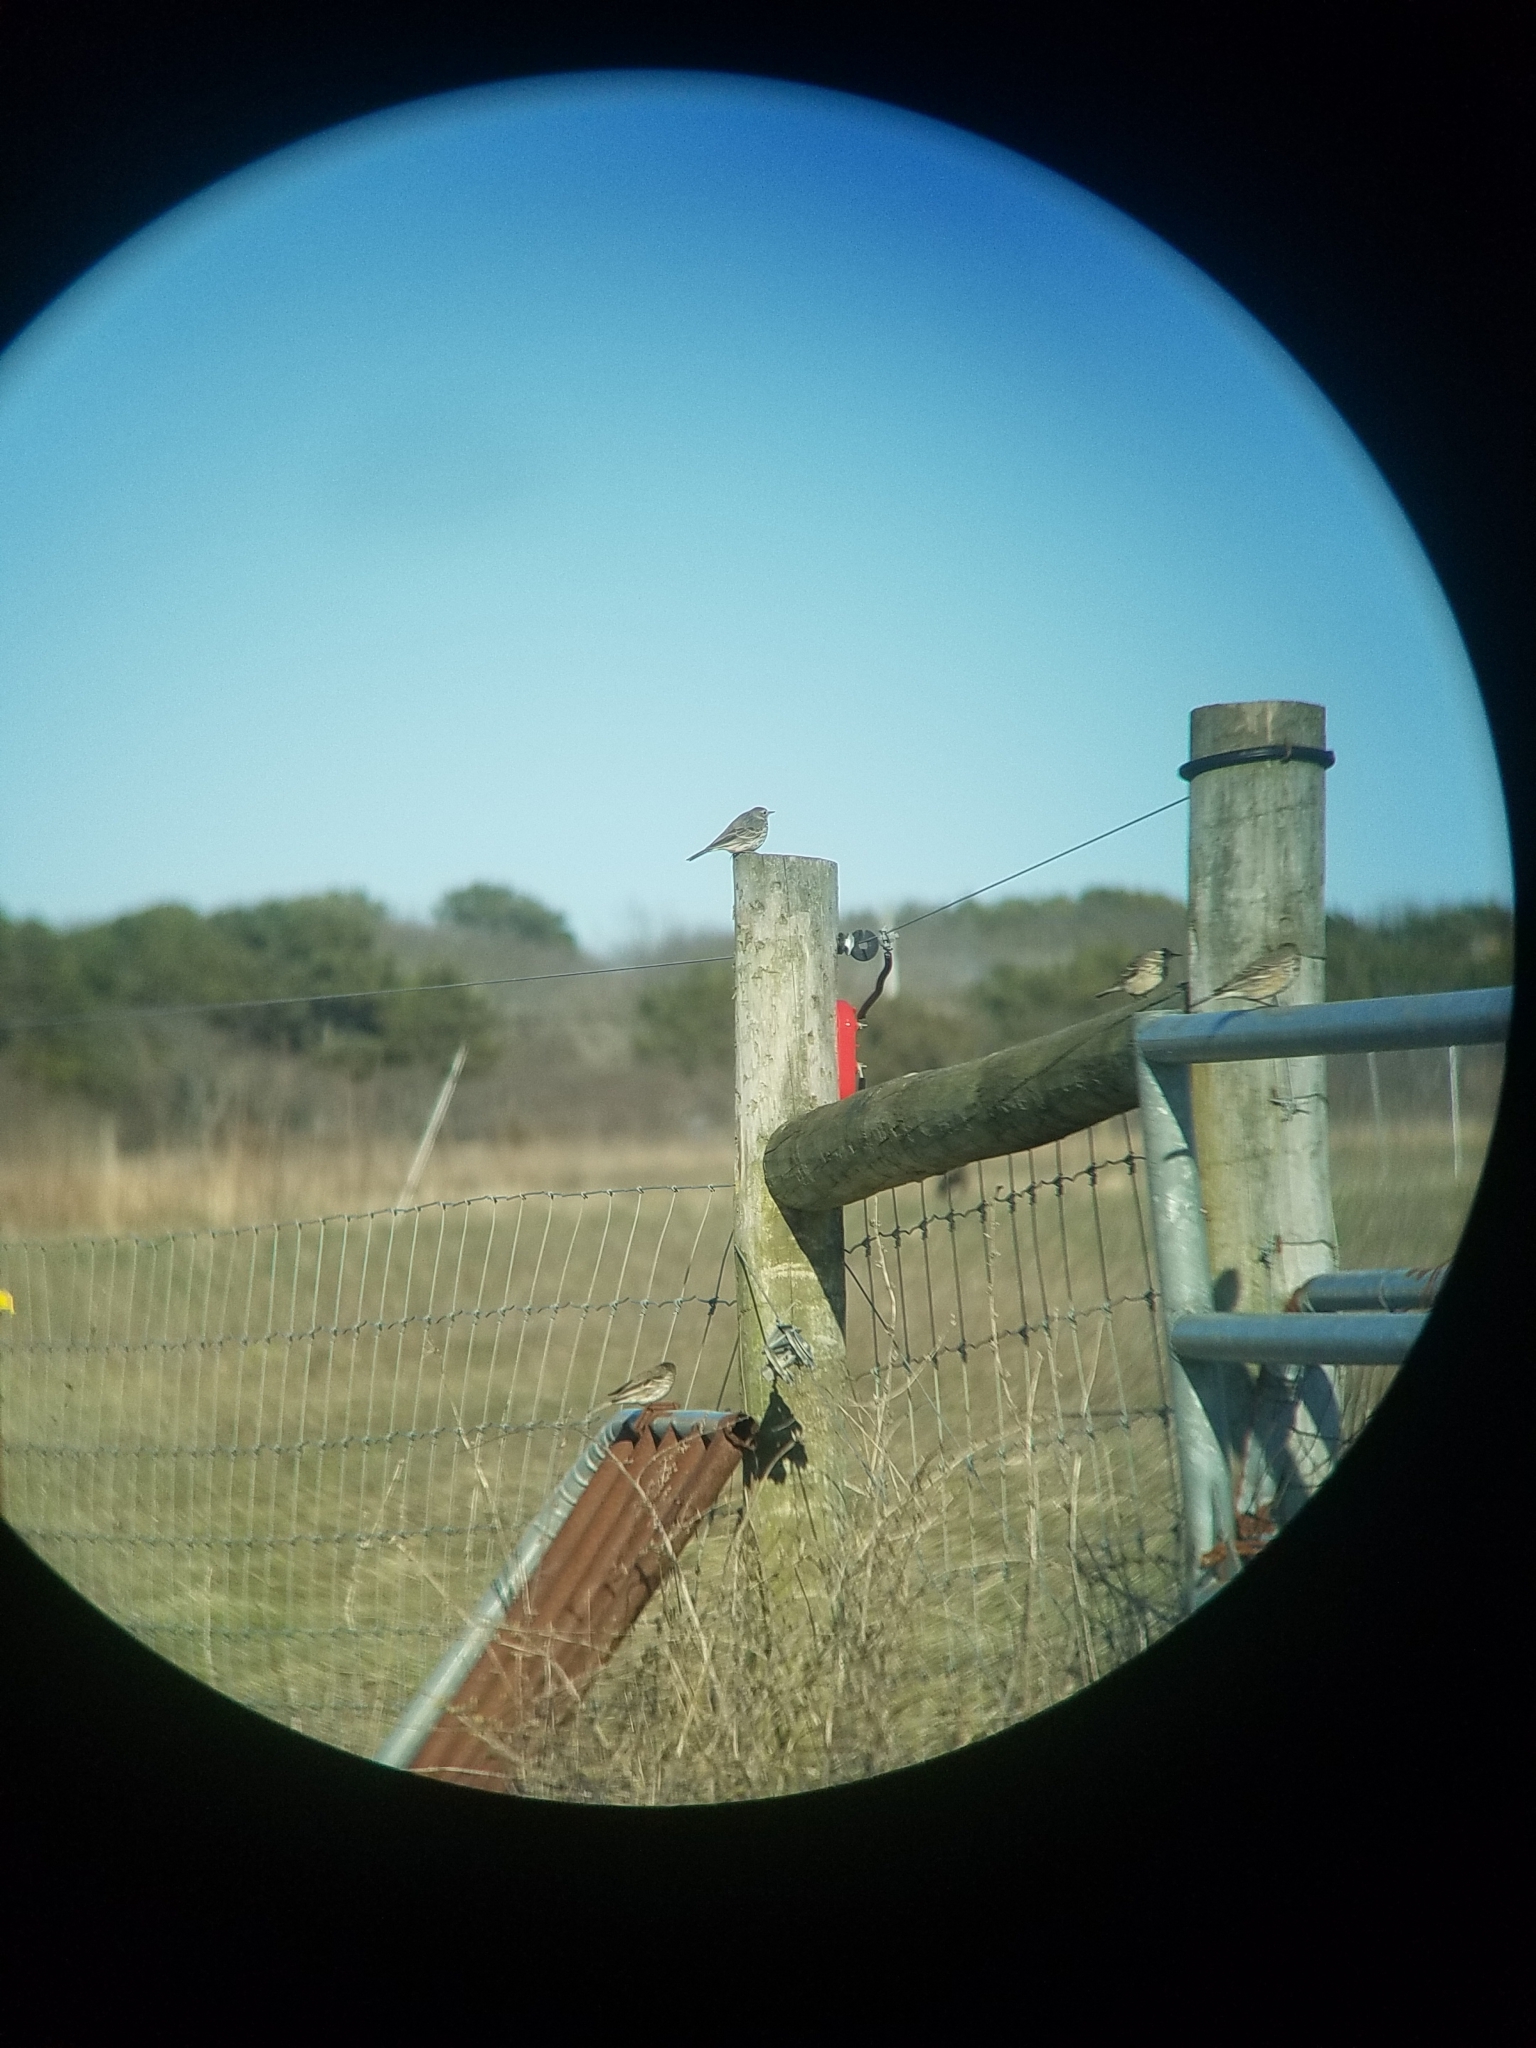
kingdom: Animalia
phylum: Chordata
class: Aves
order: Passeriformes
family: Motacillidae
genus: Anthus
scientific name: Anthus rubescens
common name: Buff-bellied pipit
